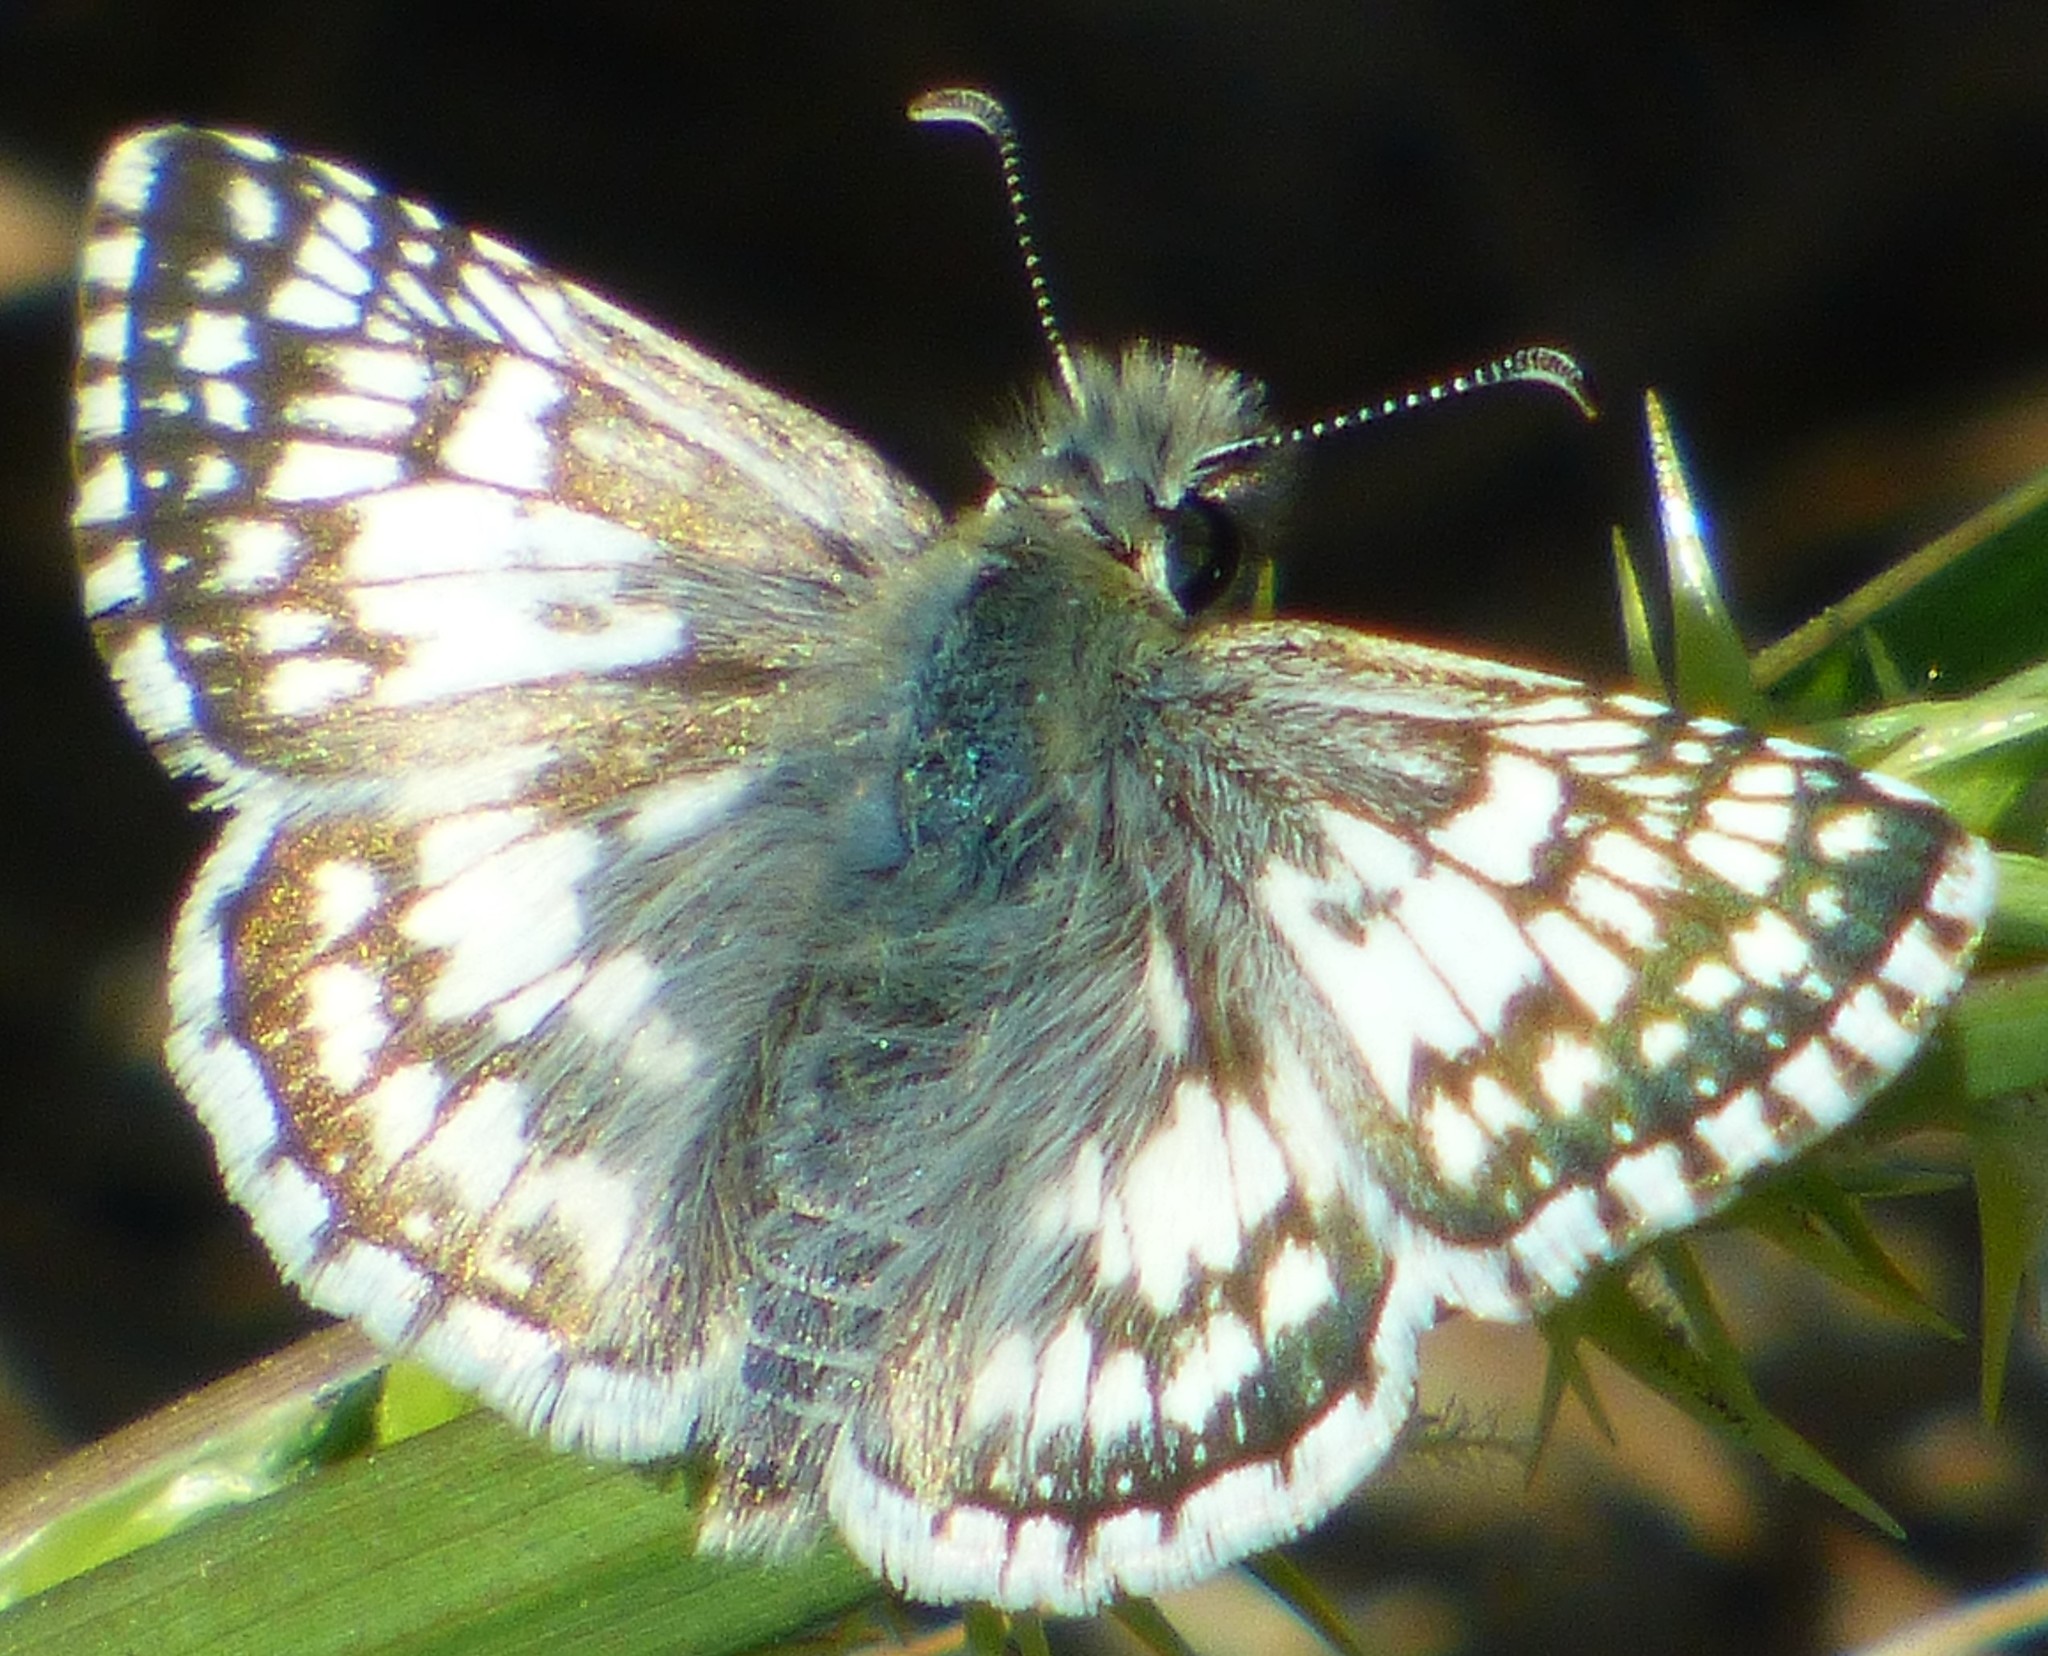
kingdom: Animalia
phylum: Arthropoda
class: Insecta
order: Lepidoptera
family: Hesperiidae
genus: Burnsius
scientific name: Burnsius albezens
